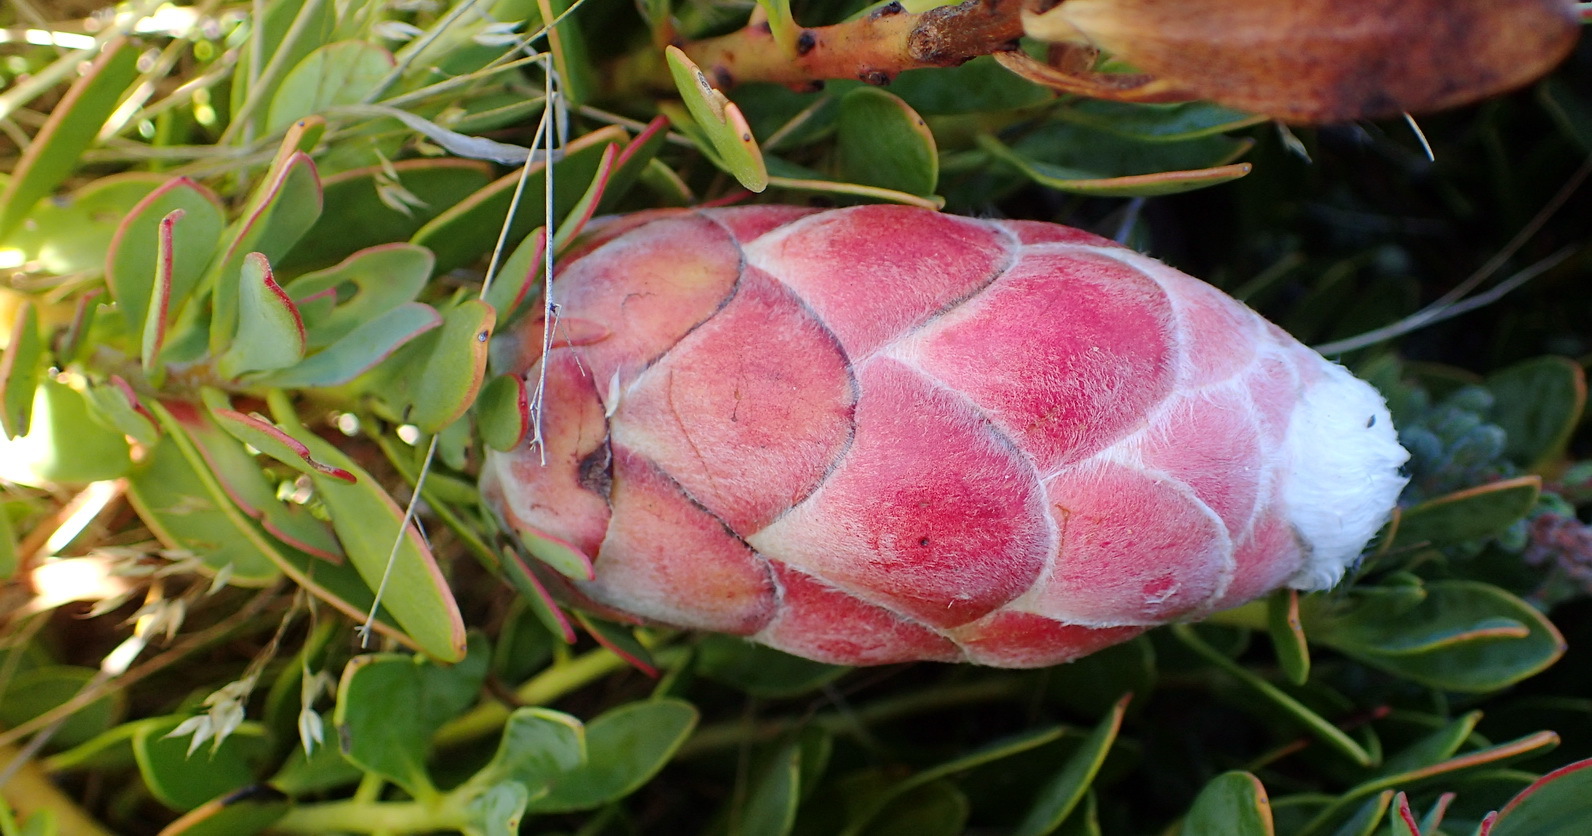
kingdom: Plantae
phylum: Tracheophyta
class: Magnoliopsida
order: Proteales
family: Proteaceae
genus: Protea
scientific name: Protea venusta
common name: Cascade sugarbush
